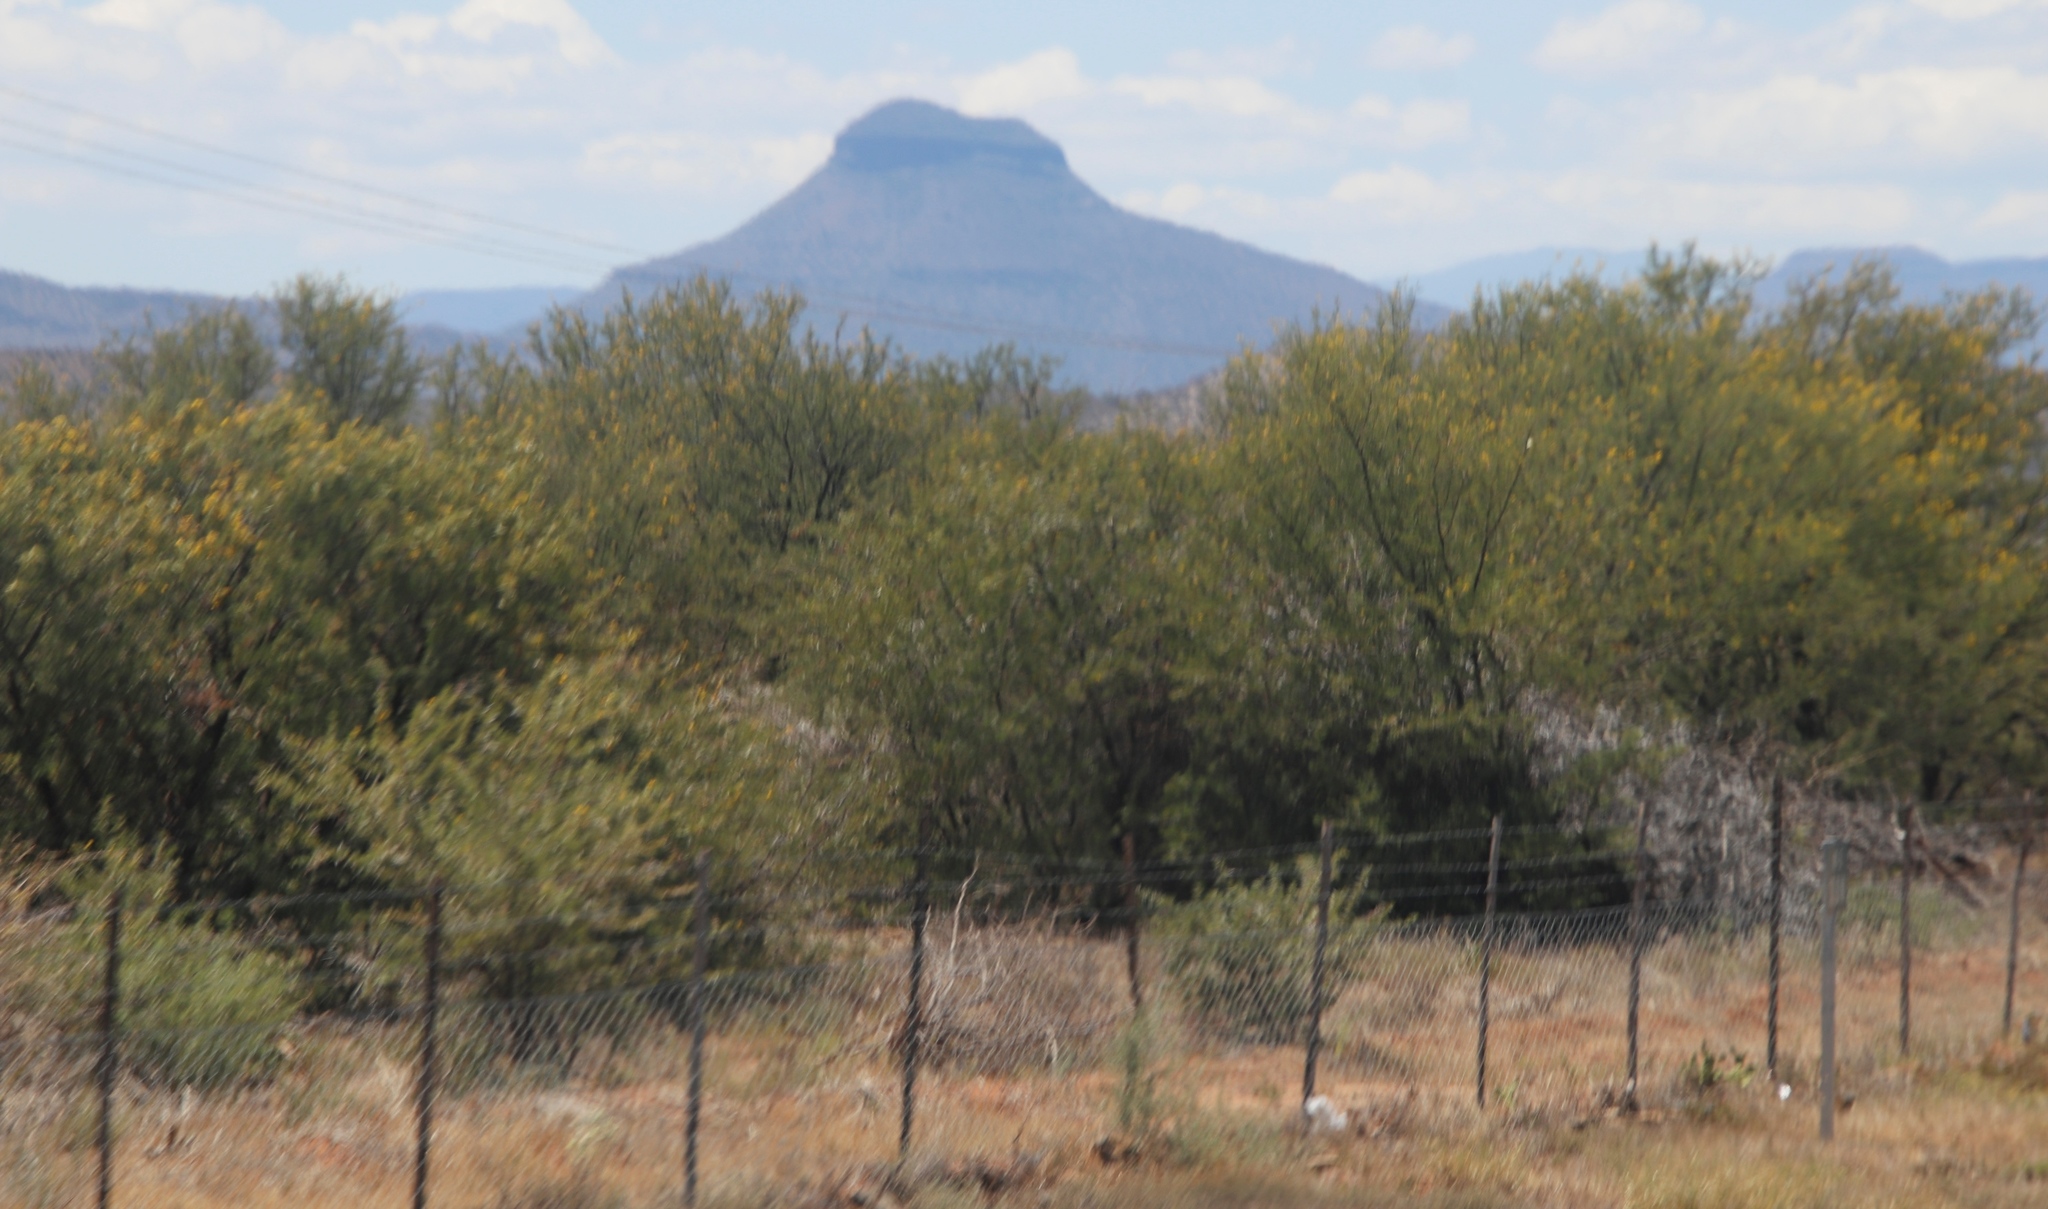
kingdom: Plantae
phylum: Tracheophyta
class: Magnoliopsida
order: Fabales
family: Fabaceae
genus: Vachellia
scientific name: Vachellia karroo
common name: Sweet thorn
